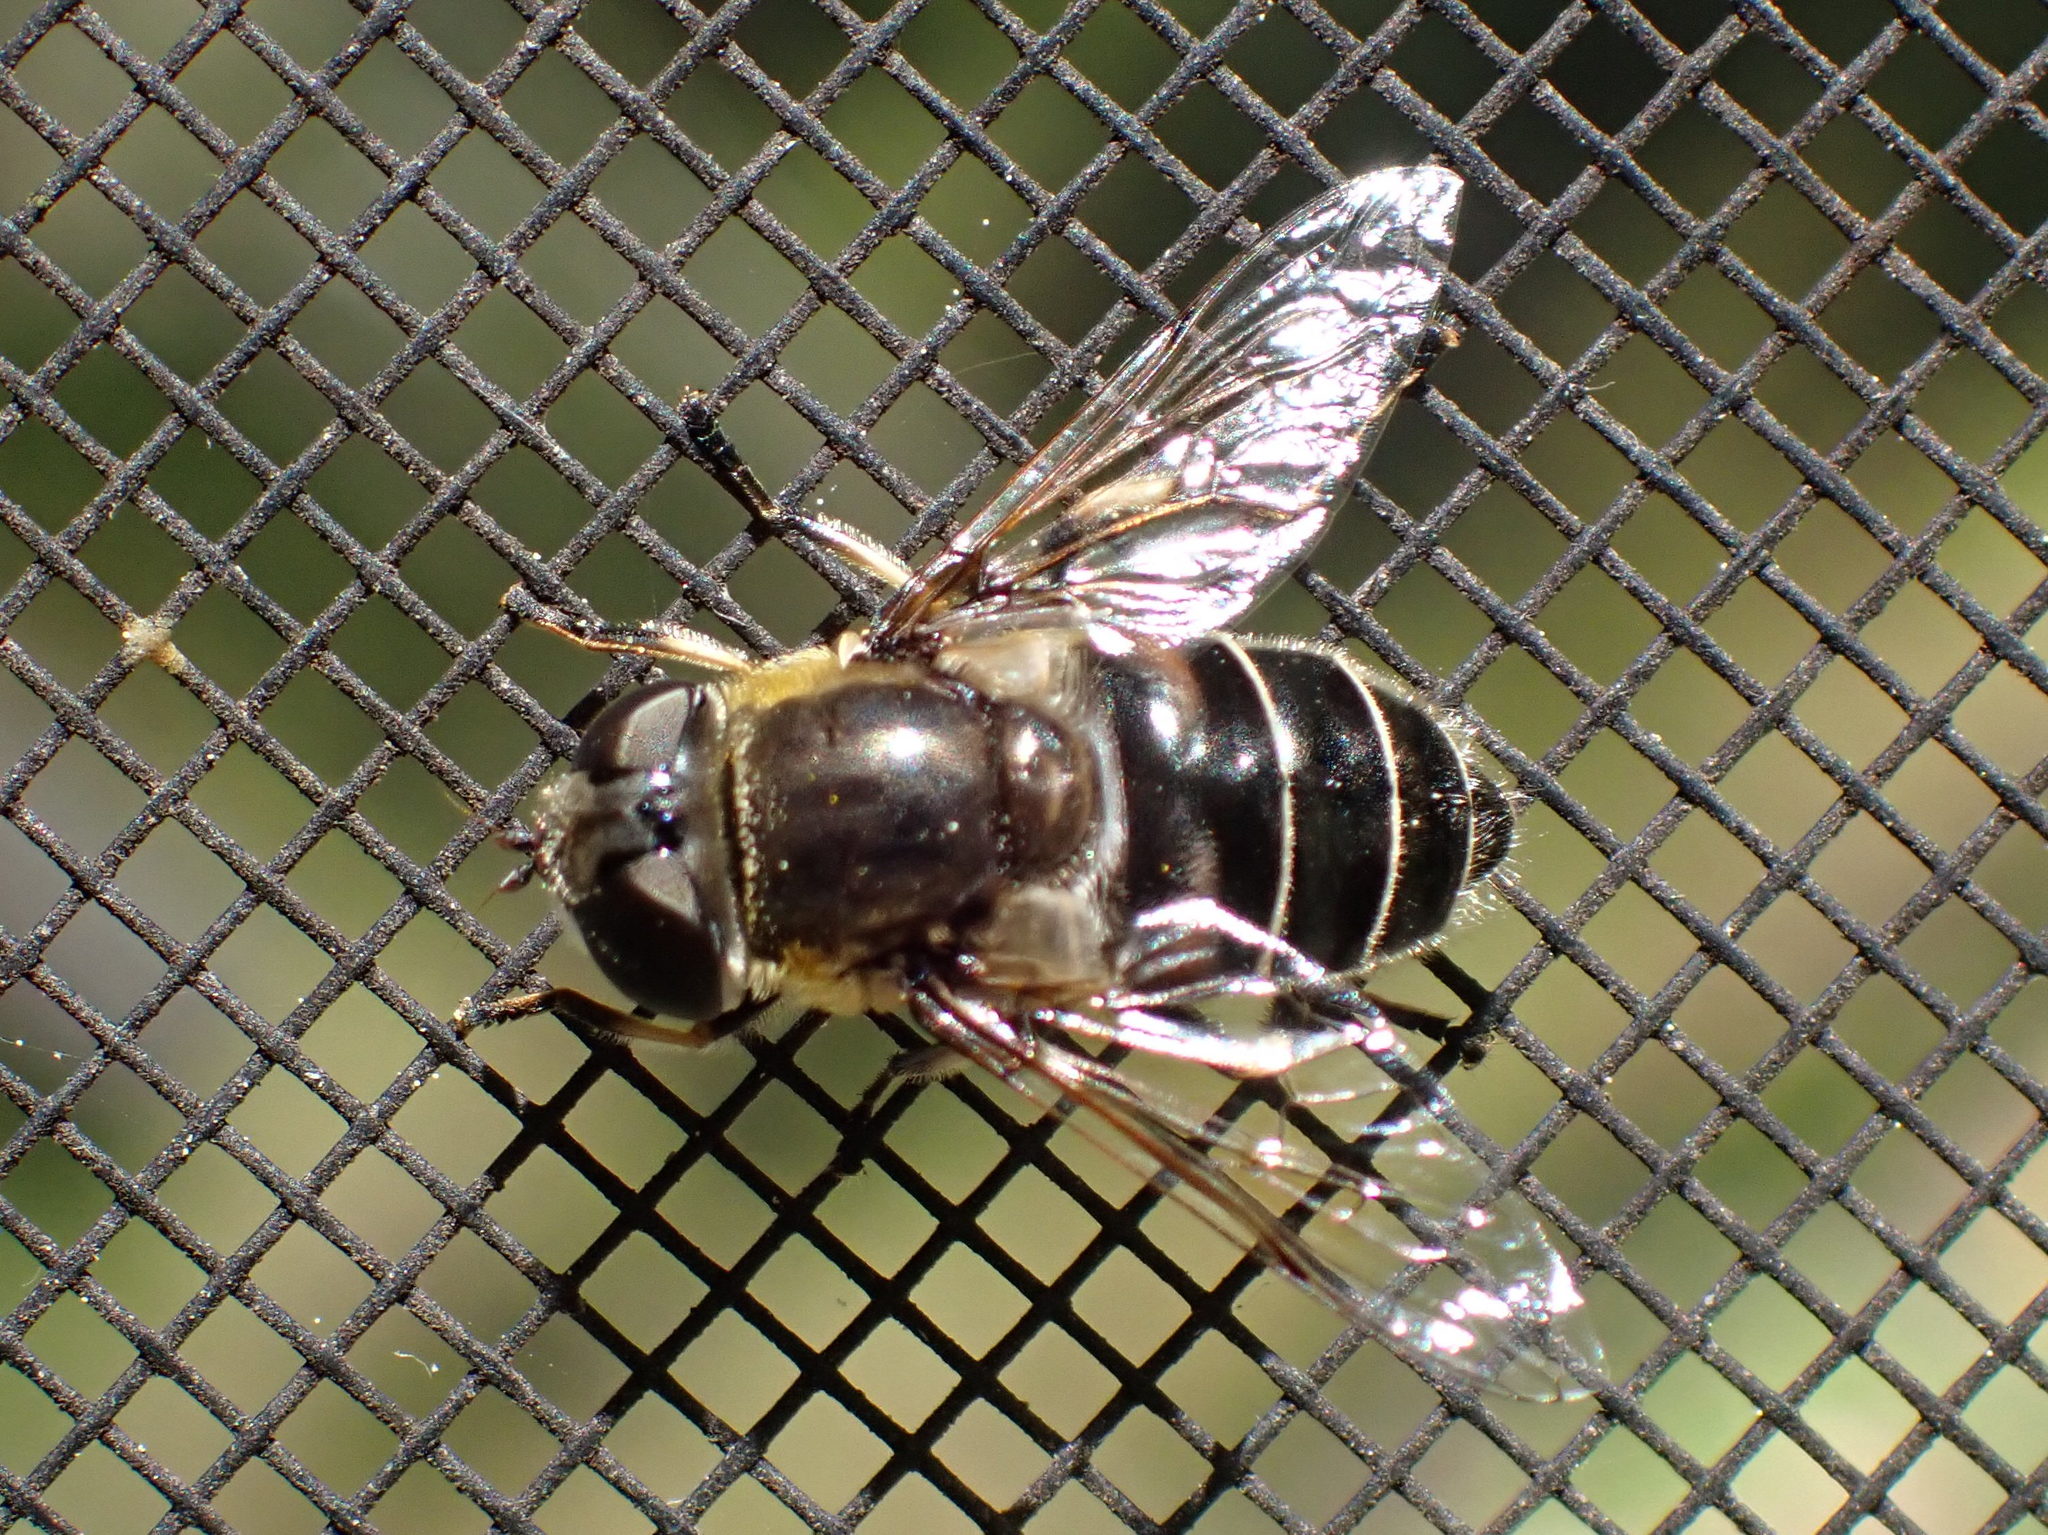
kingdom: Animalia
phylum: Arthropoda
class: Insecta
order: Diptera
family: Syrphidae
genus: Eristalis
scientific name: Eristalis dimidiata
